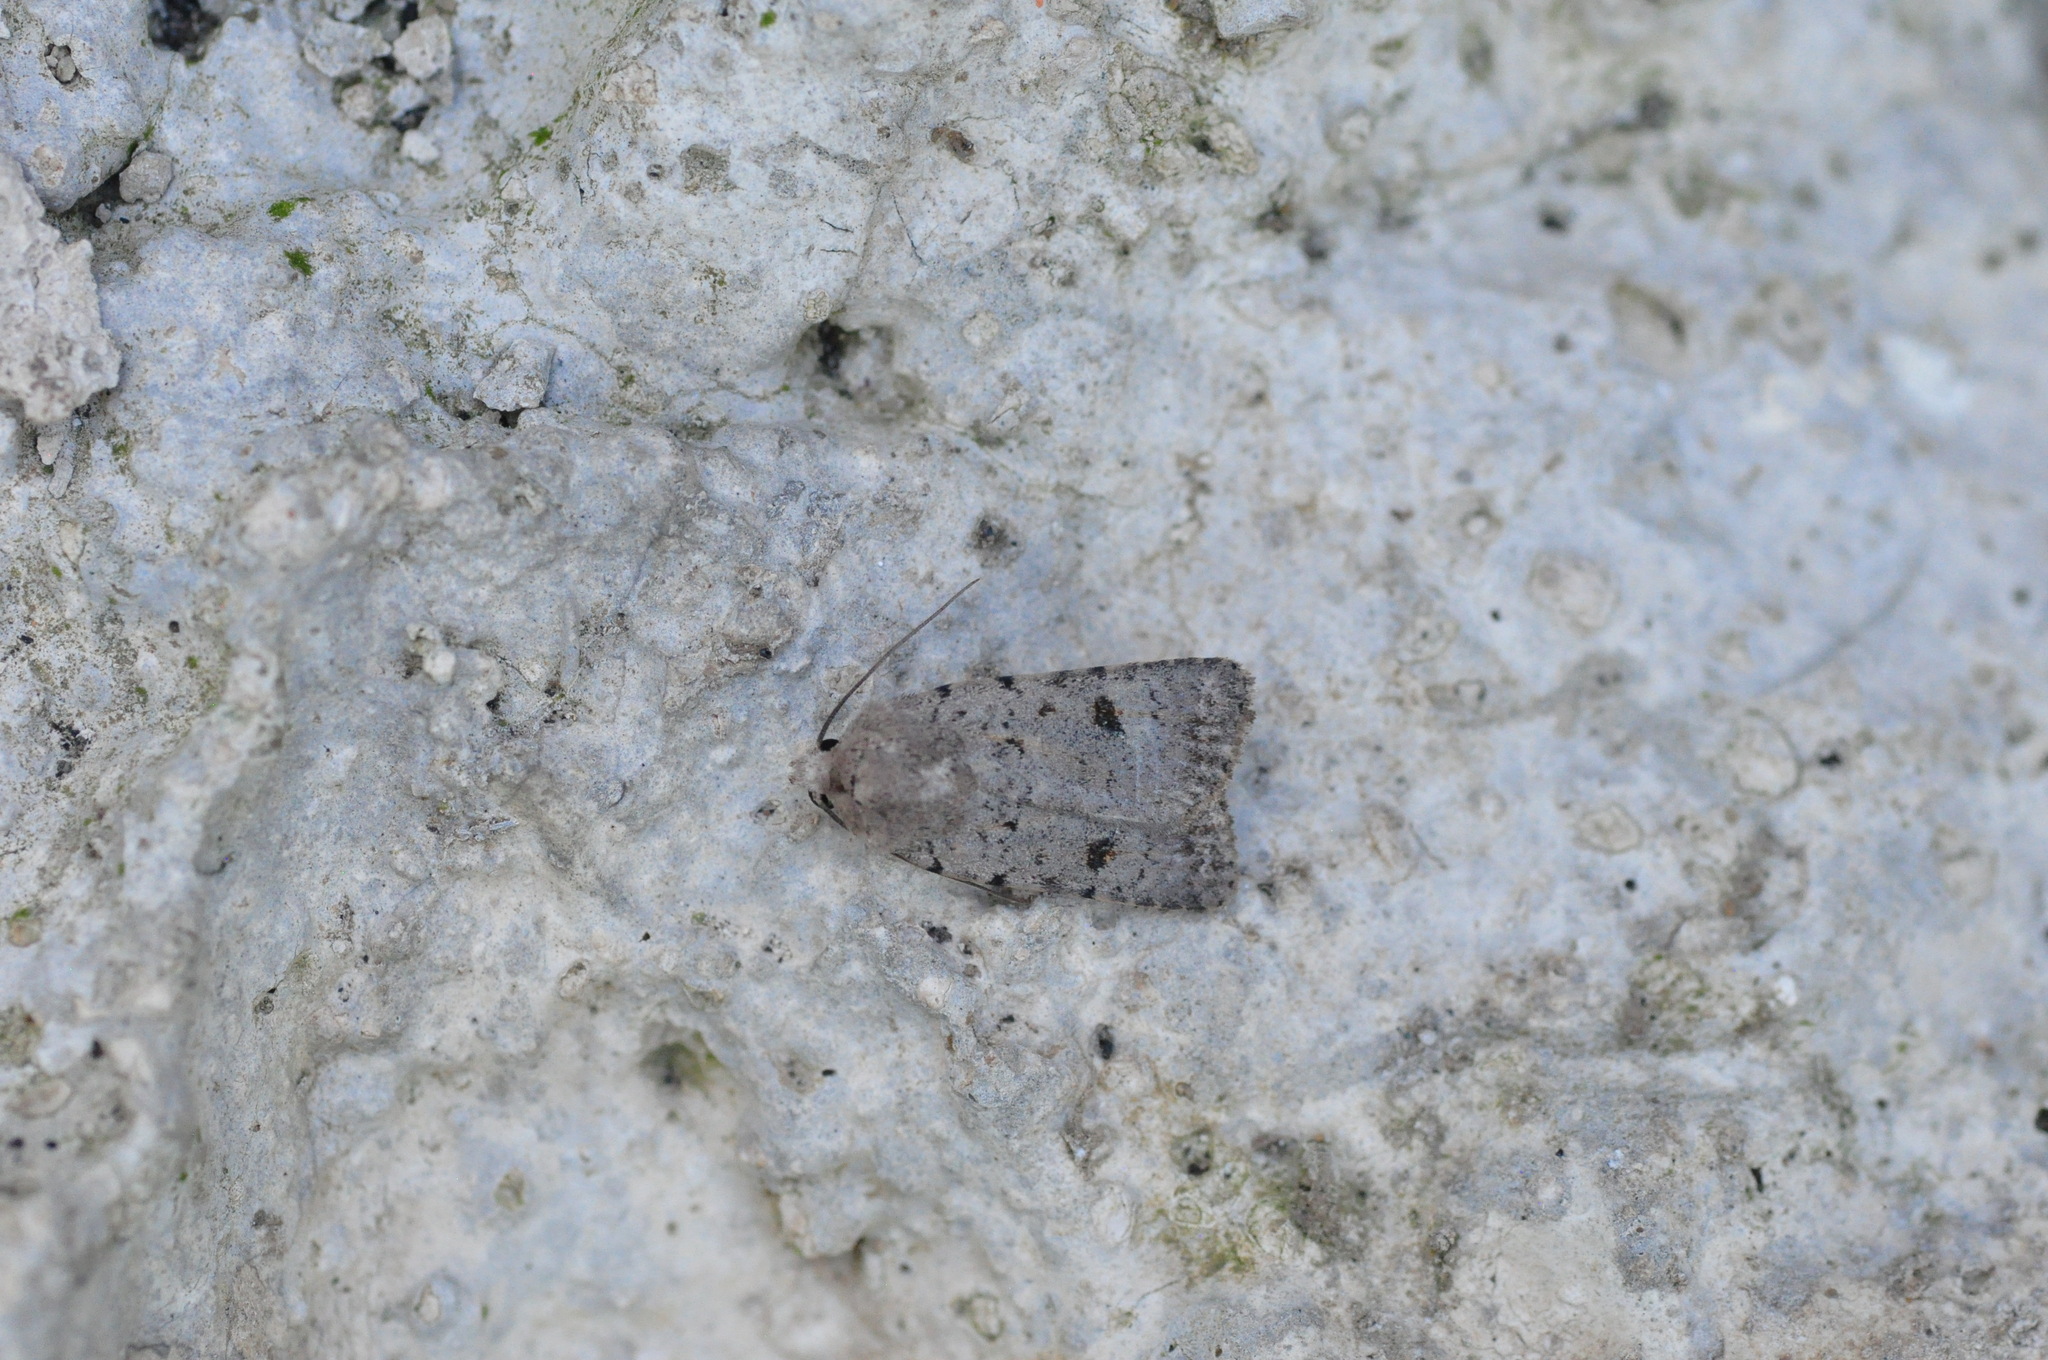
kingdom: Animalia
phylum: Arthropoda
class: Insecta
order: Lepidoptera
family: Noctuidae
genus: Caradrina
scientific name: Caradrina rebeli
